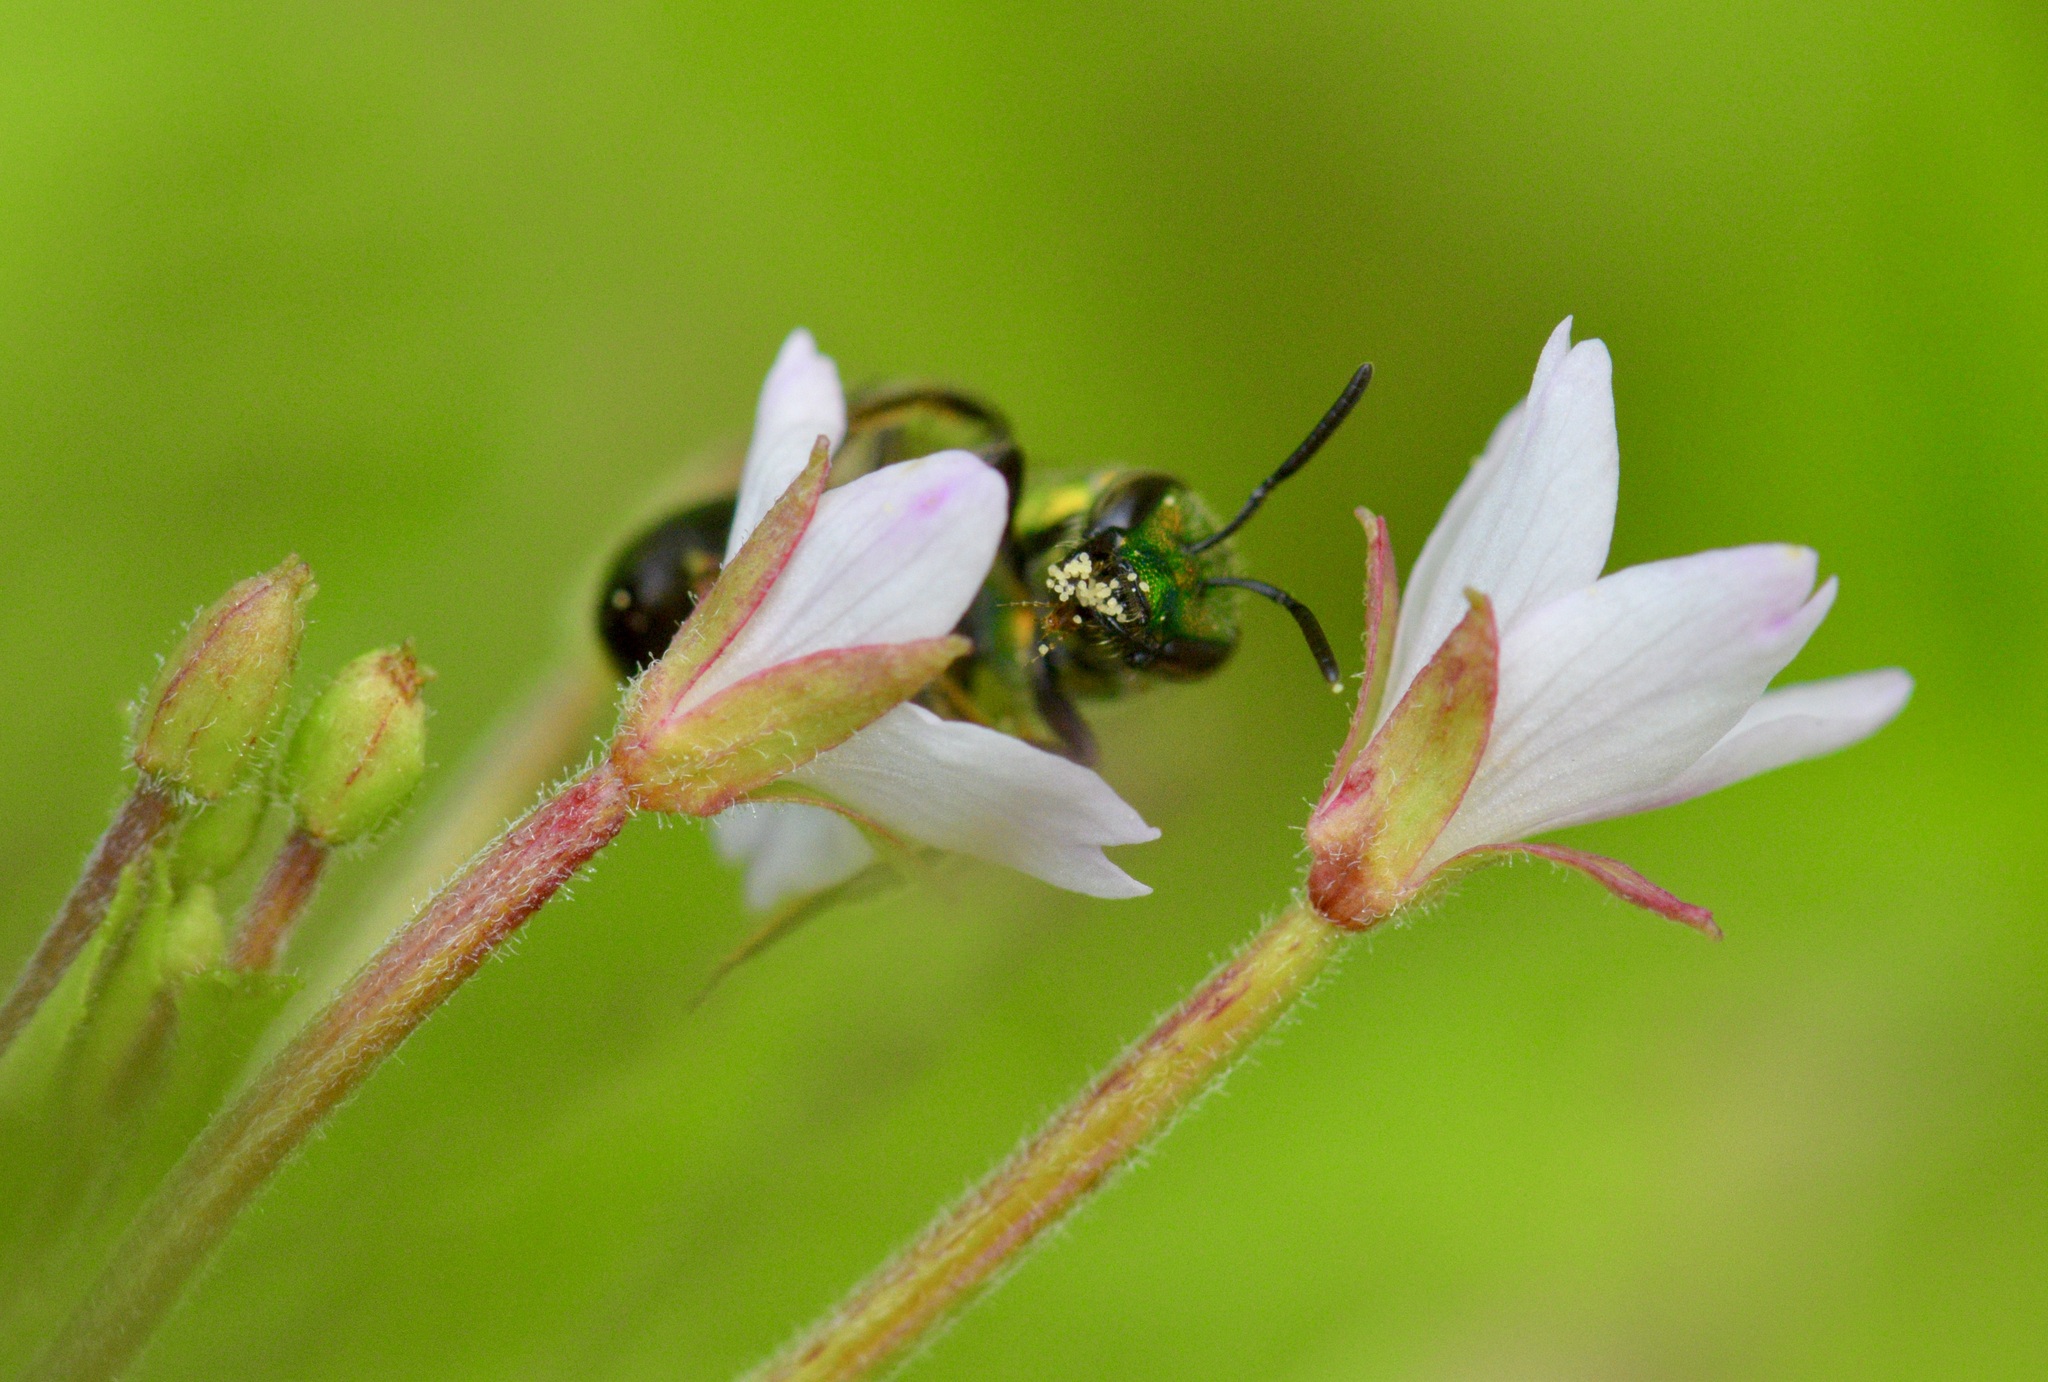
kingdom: Animalia
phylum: Arthropoda
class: Insecta
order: Hymenoptera
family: Halictidae
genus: Augochlora
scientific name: Augochlora pura
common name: Pure green sweat bee
